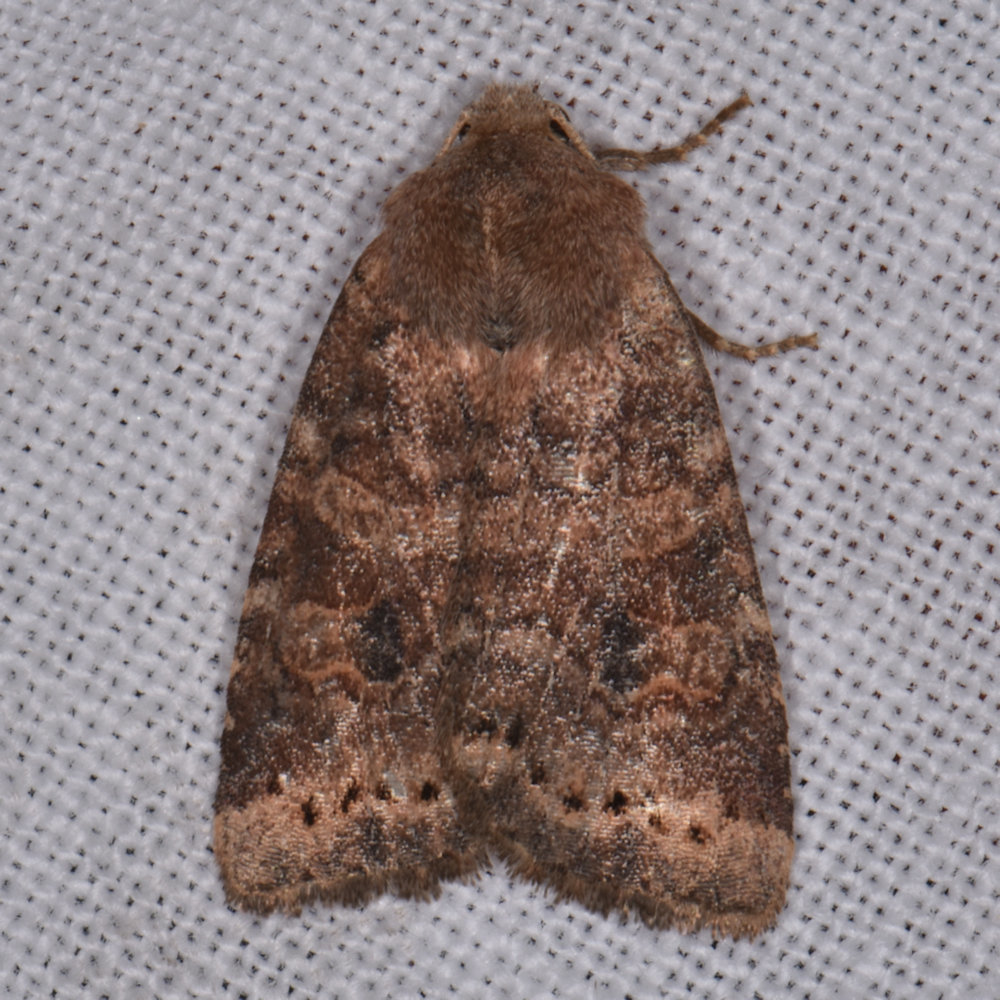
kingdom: Animalia
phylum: Arthropoda
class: Insecta
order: Lepidoptera
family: Noctuidae
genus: Anathix
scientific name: Anathix puta
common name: Puta sallow
